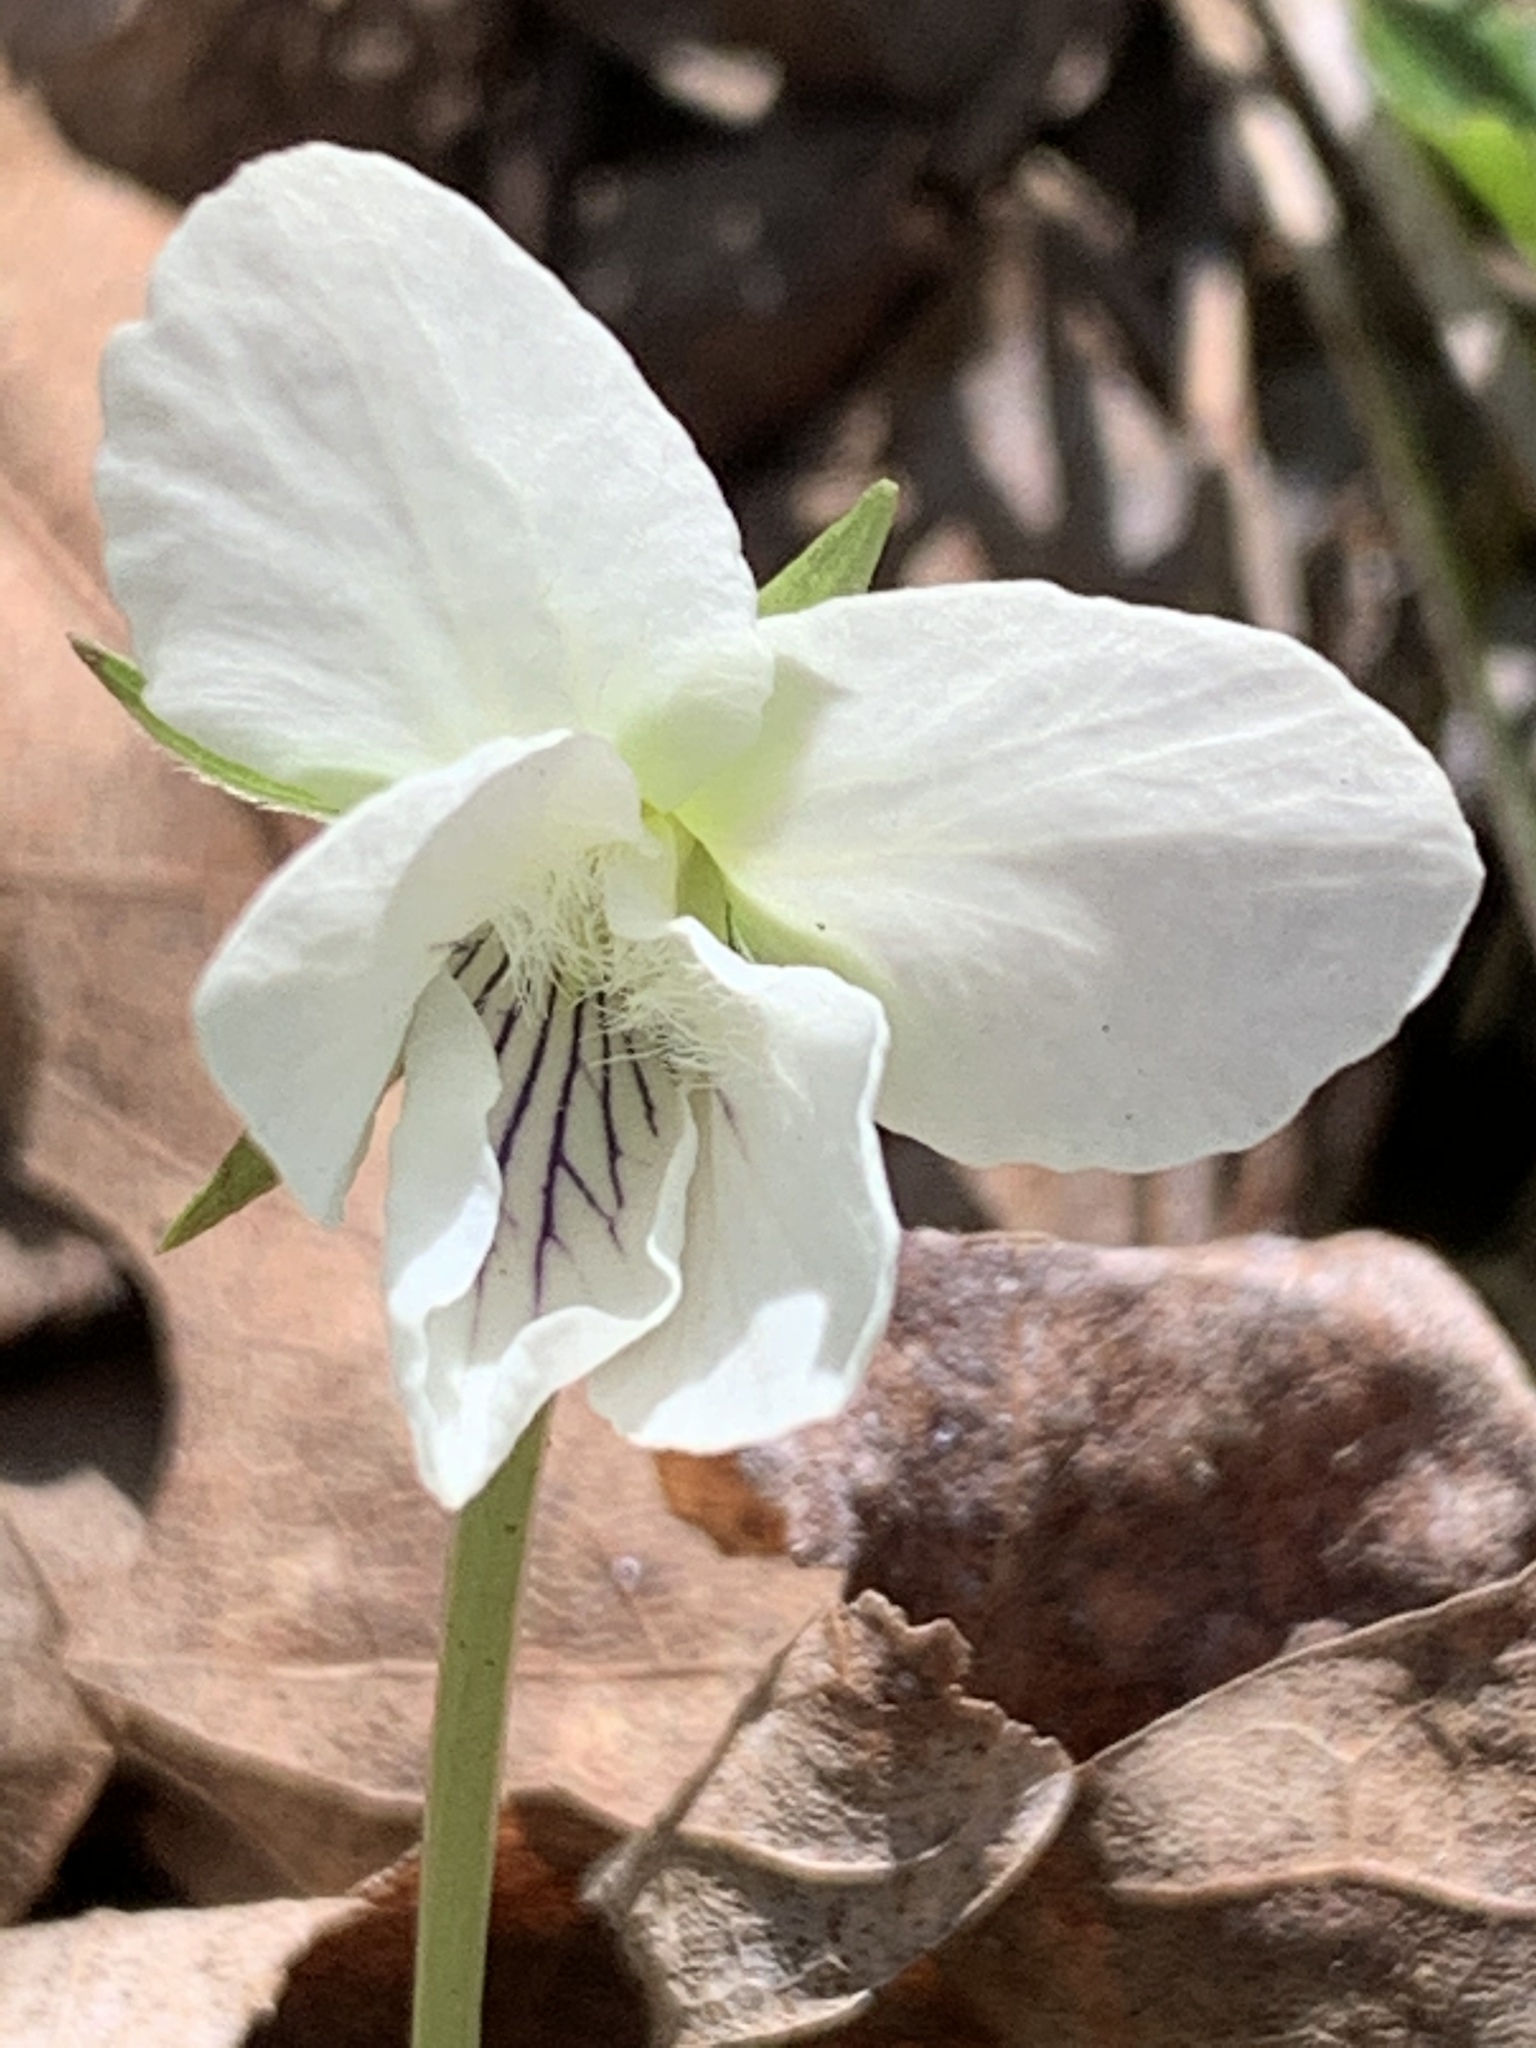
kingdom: Plantae
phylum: Tracheophyta
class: Magnoliopsida
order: Malpighiales
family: Violaceae
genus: Viola
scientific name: Viola striata
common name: Cream violet
